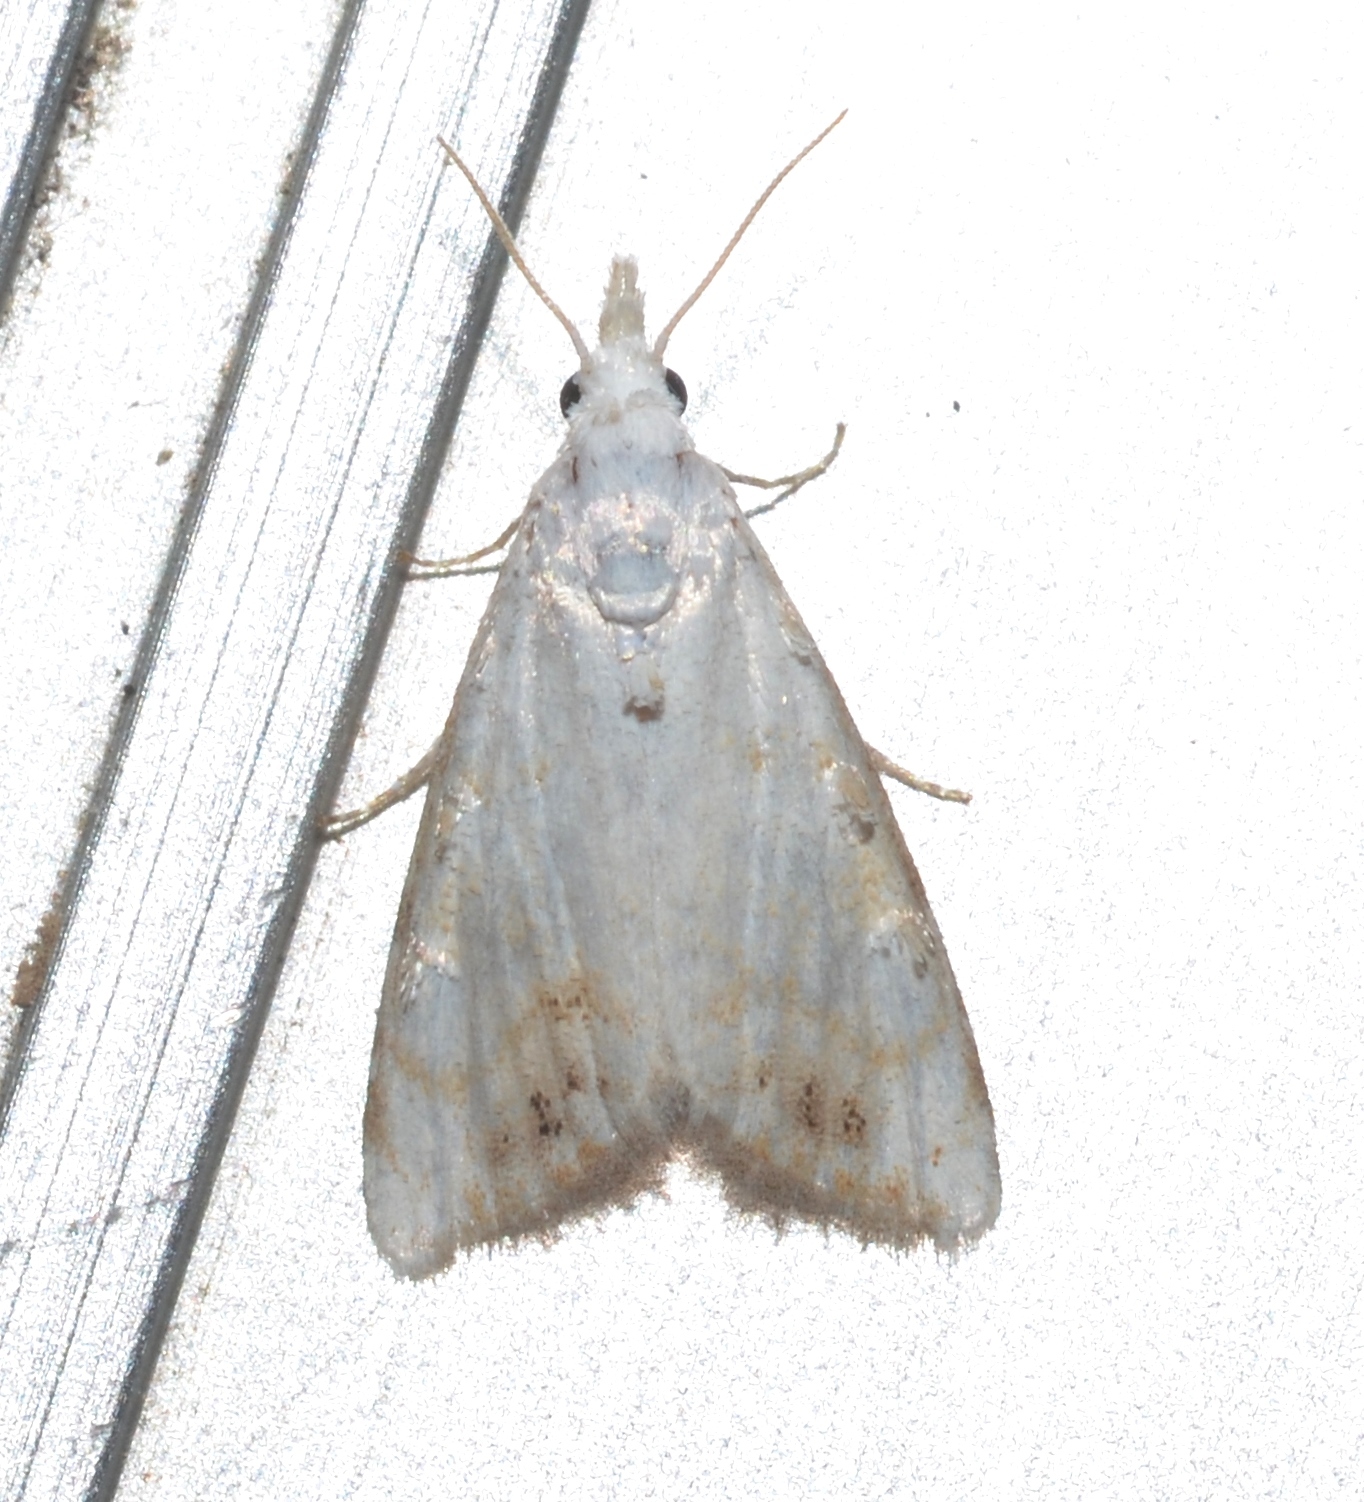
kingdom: Animalia
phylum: Arthropoda
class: Insecta
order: Lepidoptera
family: Nolidae
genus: Nola
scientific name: Nola cereella
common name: Sorghum webworm moth
